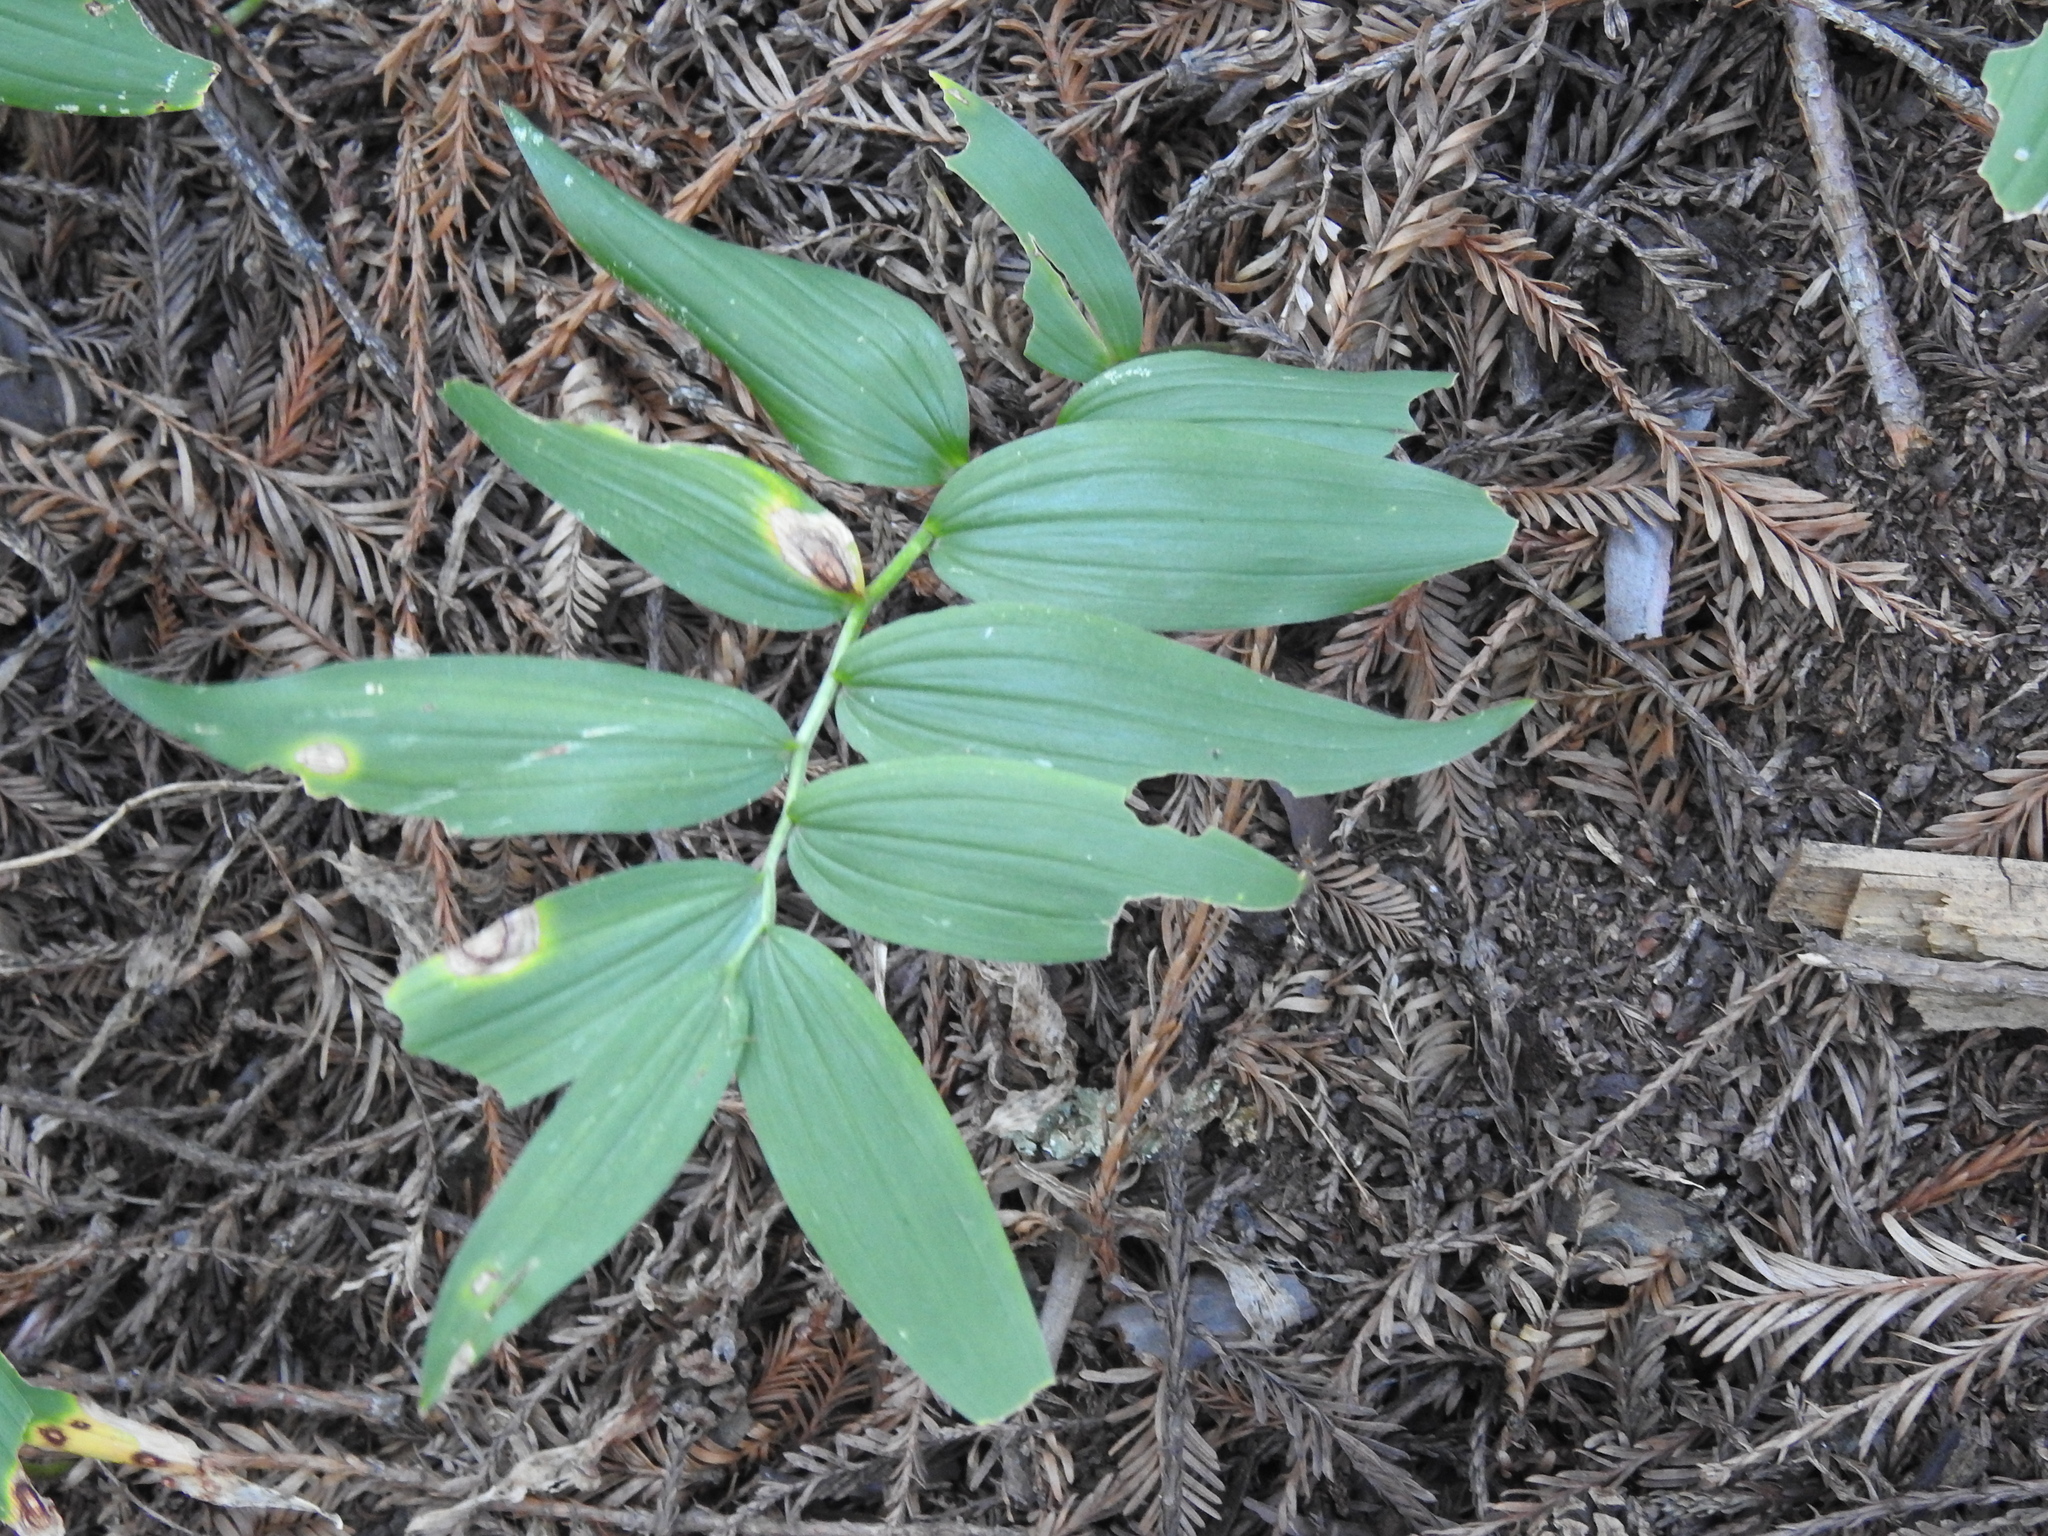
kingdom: Plantae
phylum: Tracheophyta
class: Liliopsida
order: Asparagales
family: Asparagaceae
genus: Maianthemum
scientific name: Maianthemum stellatum
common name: Little false solomon's seal
